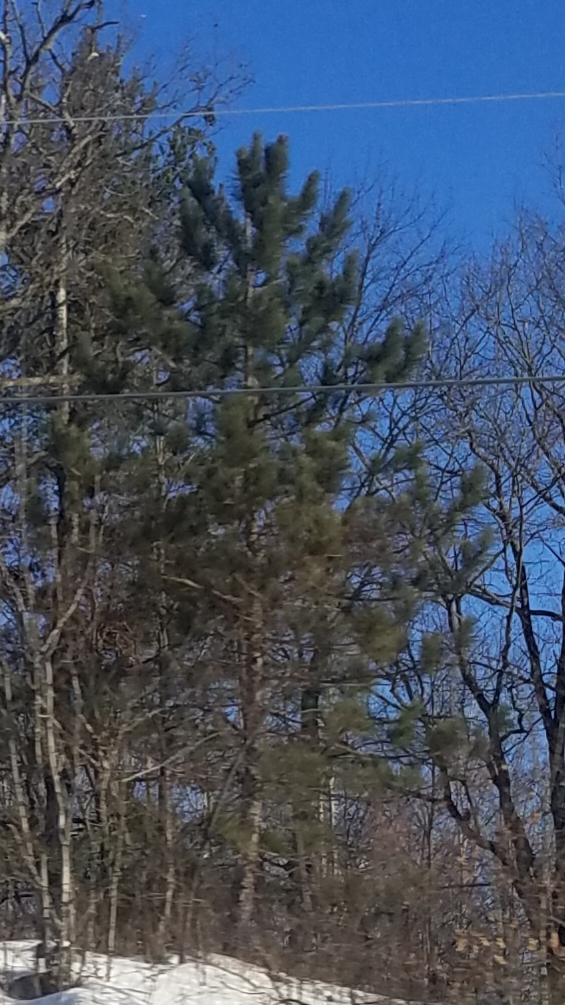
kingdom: Plantae
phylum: Tracheophyta
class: Pinopsida
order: Pinales
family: Pinaceae
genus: Pinus
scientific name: Pinus resinosa
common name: Norway pine
